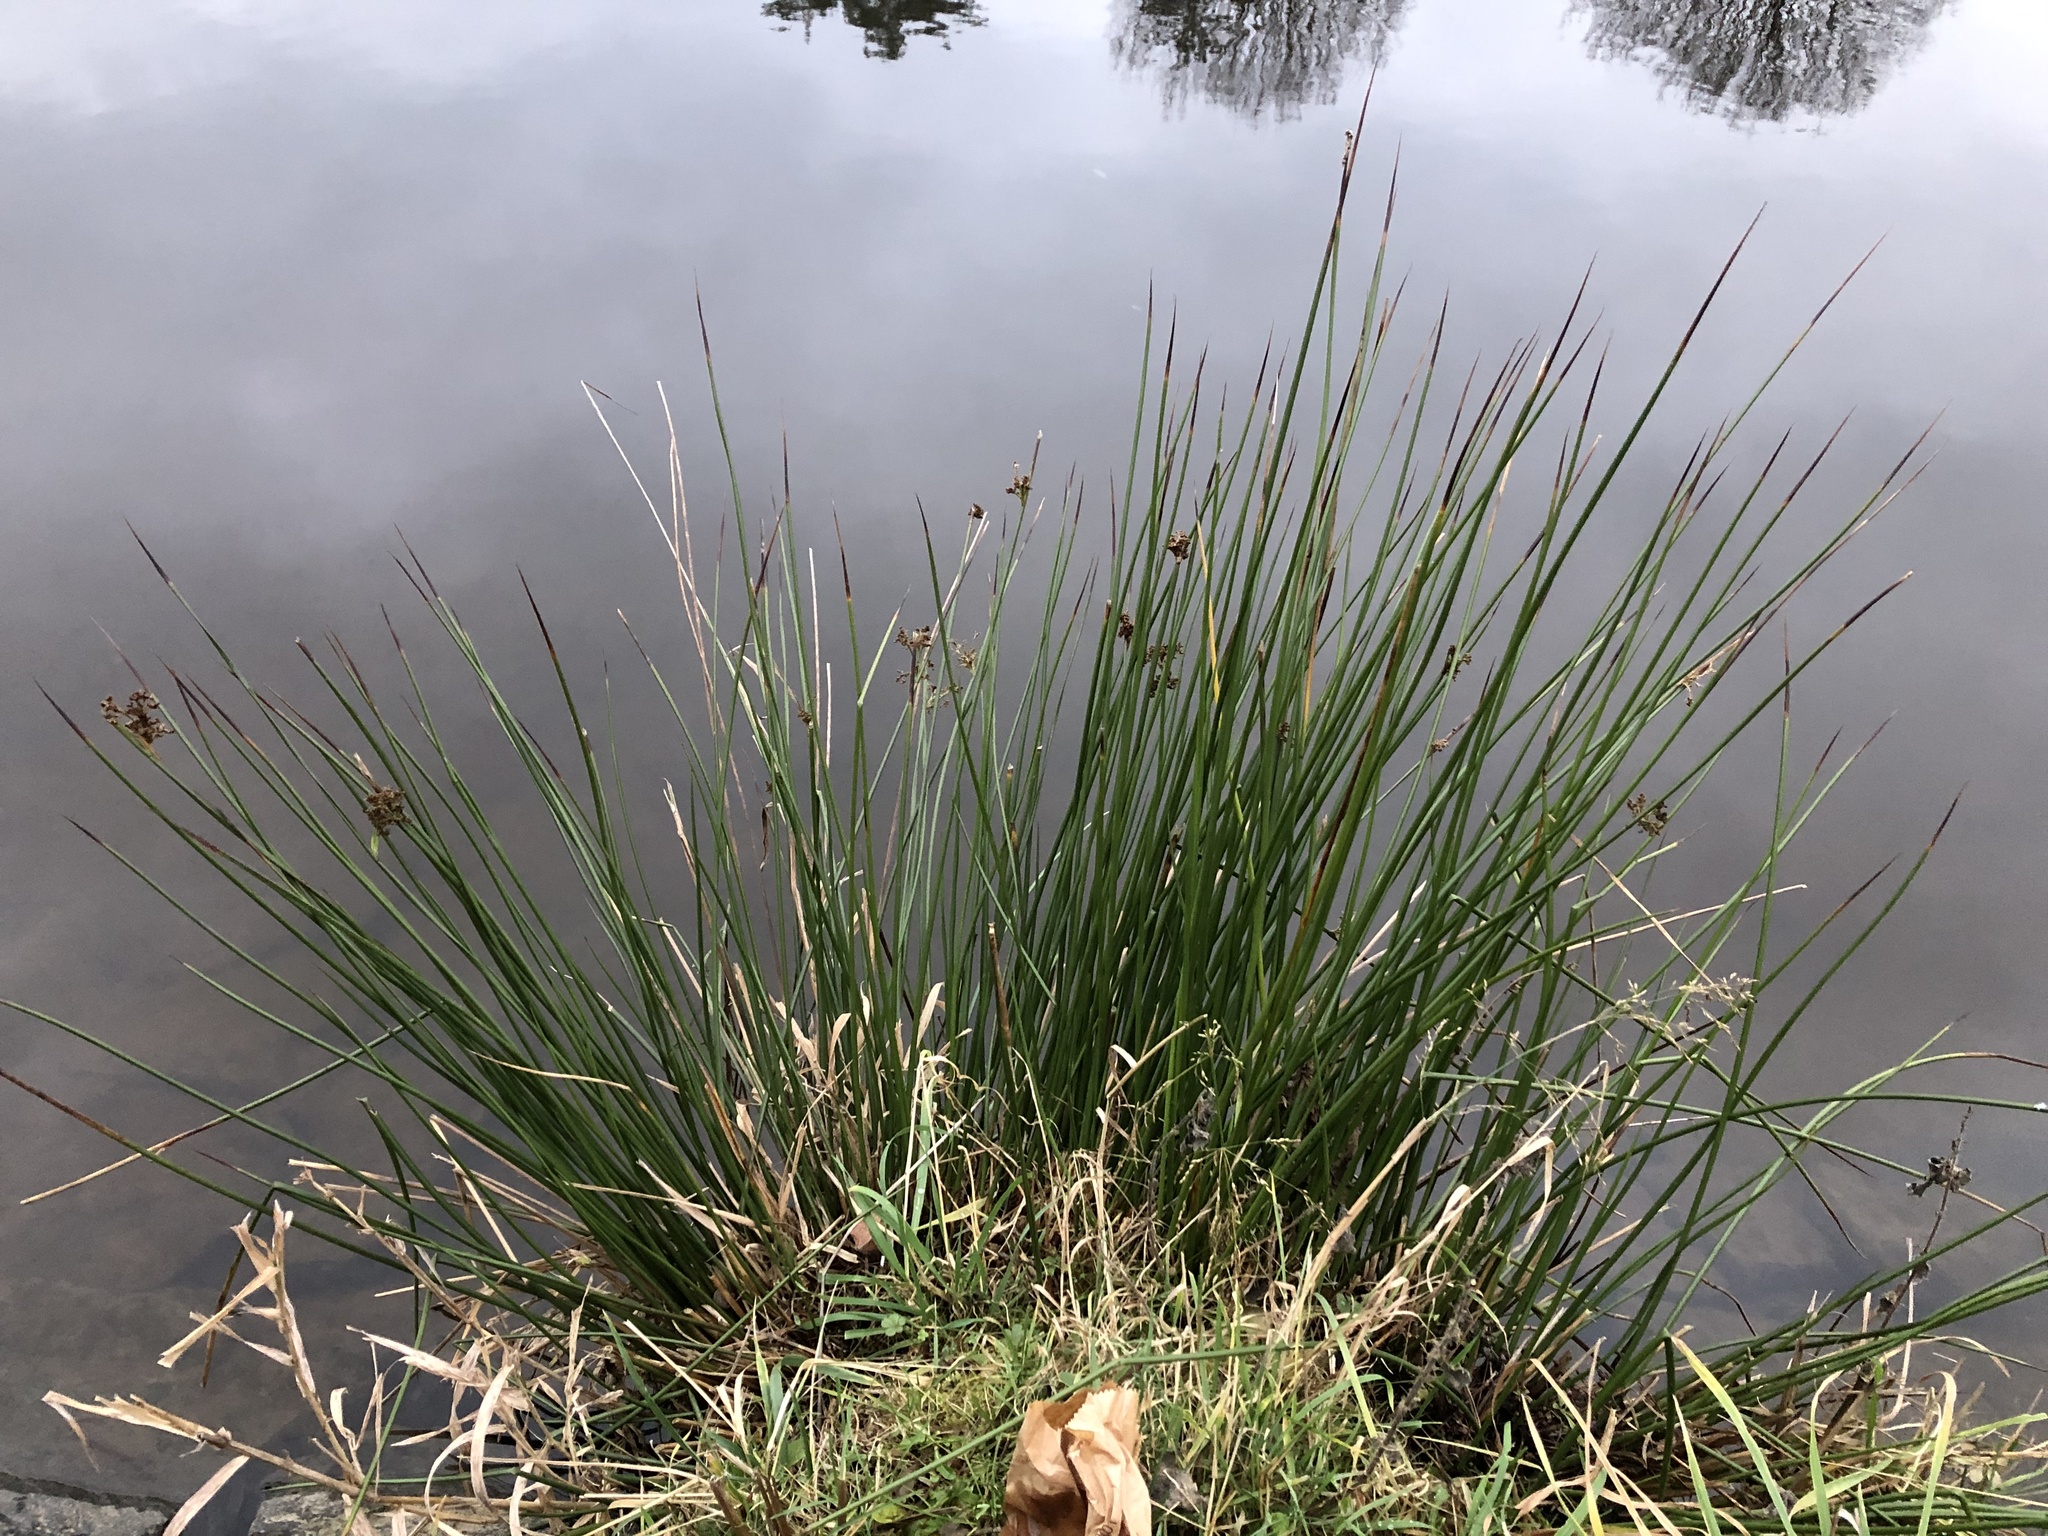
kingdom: Plantae
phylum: Tracheophyta
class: Liliopsida
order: Poales
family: Juncaceae
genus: Juncus
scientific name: Juncus effusus
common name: Soft rush
